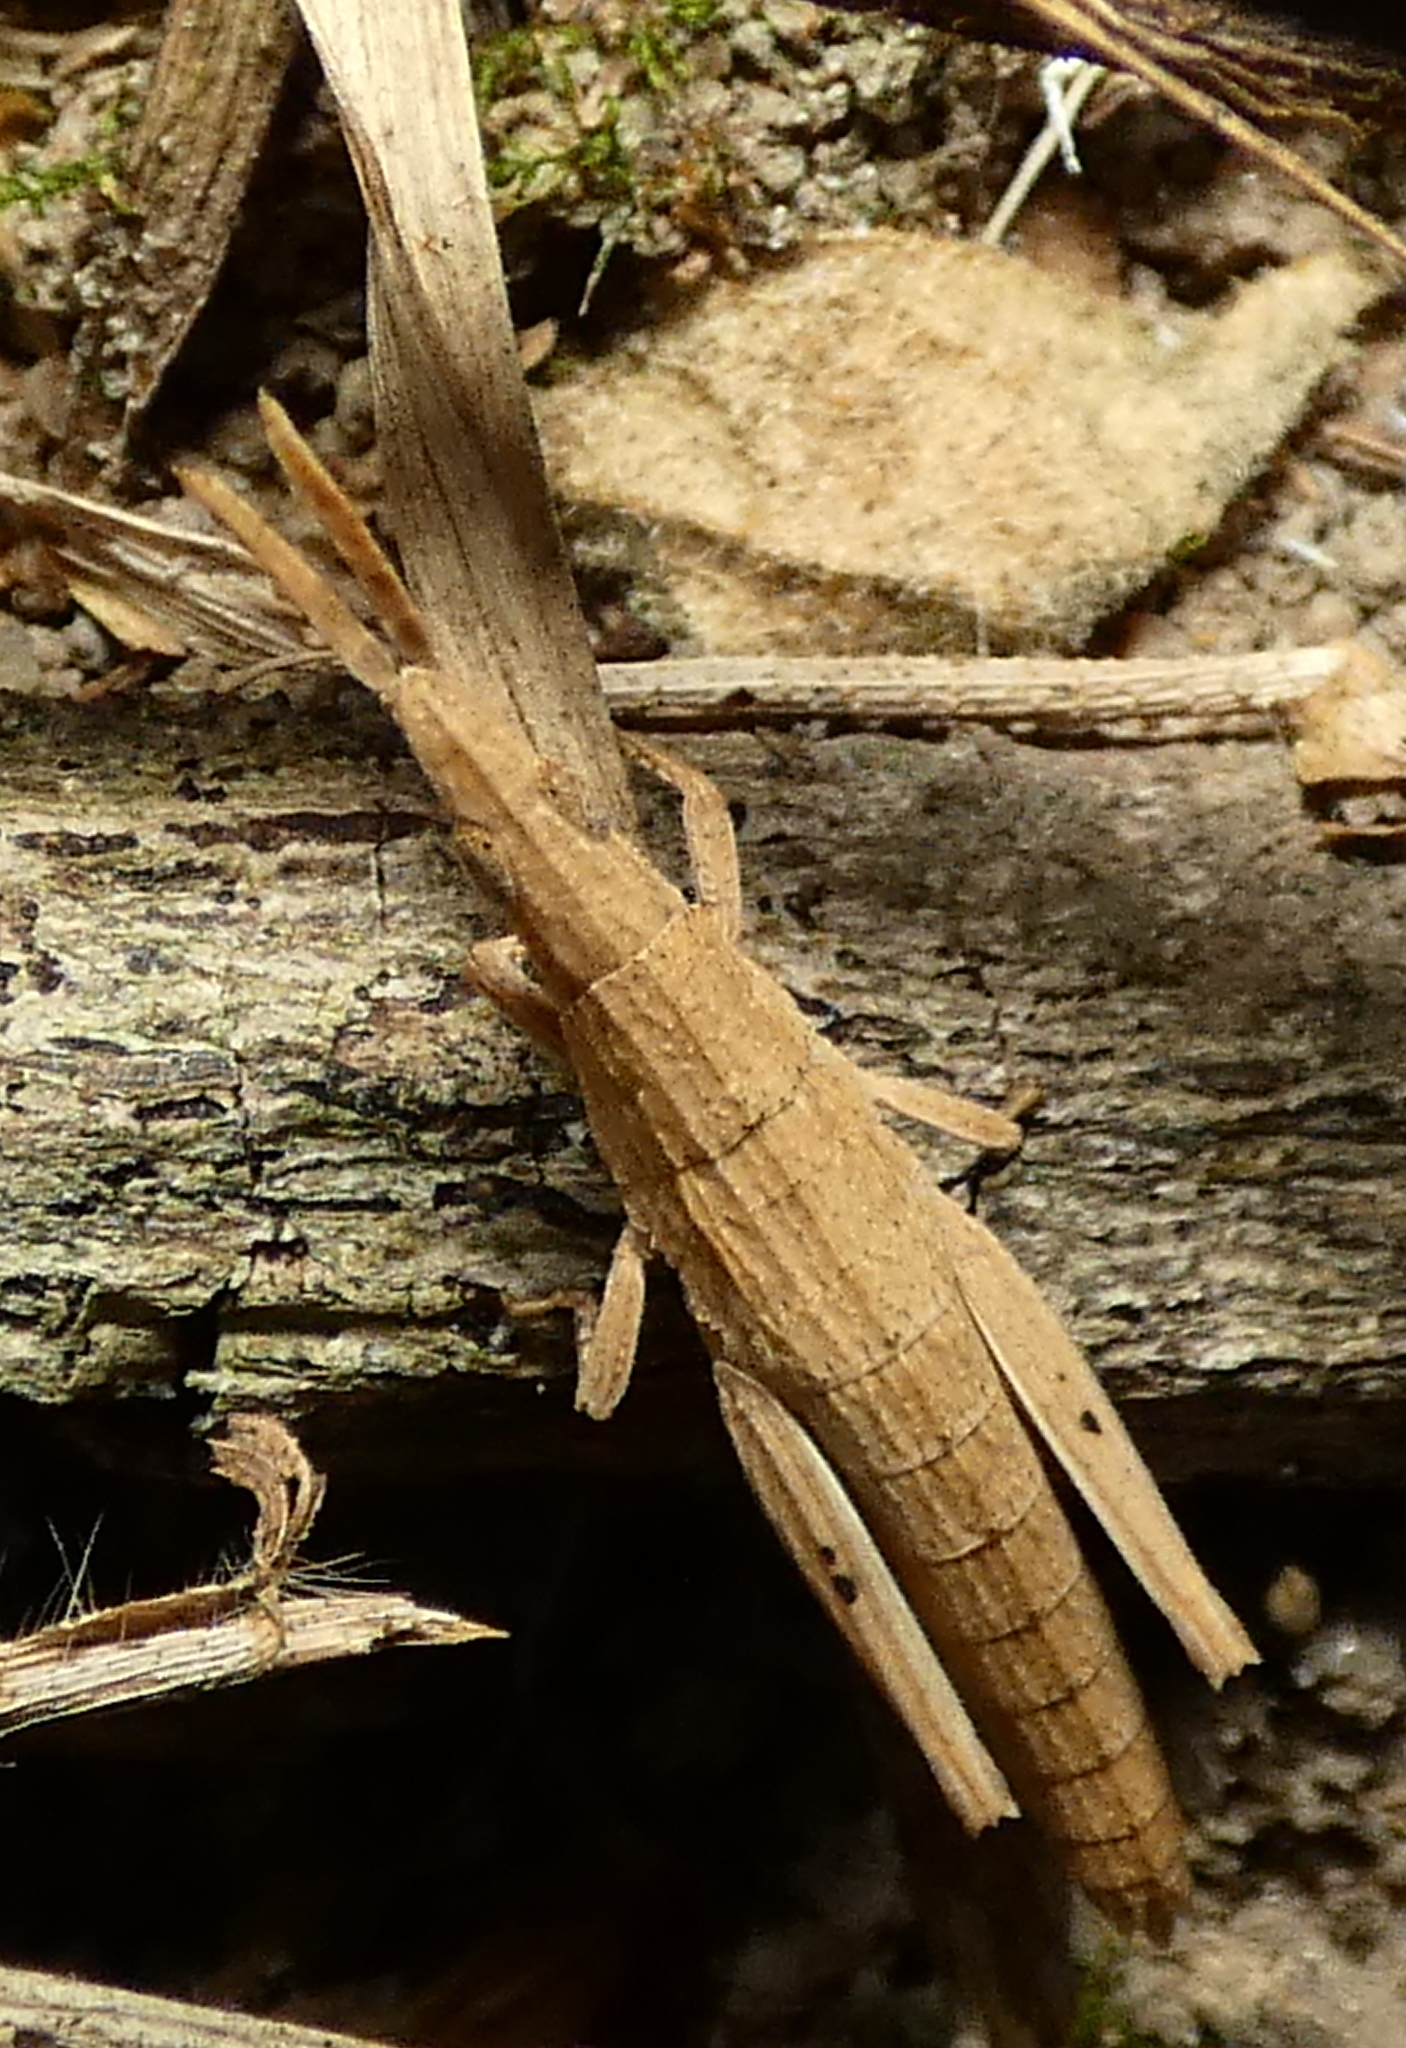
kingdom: Animalia
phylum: Arthropoda
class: Insecta
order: Orthoptera
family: Pyrgomorphidae
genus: Algete
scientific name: Algete brunneri
